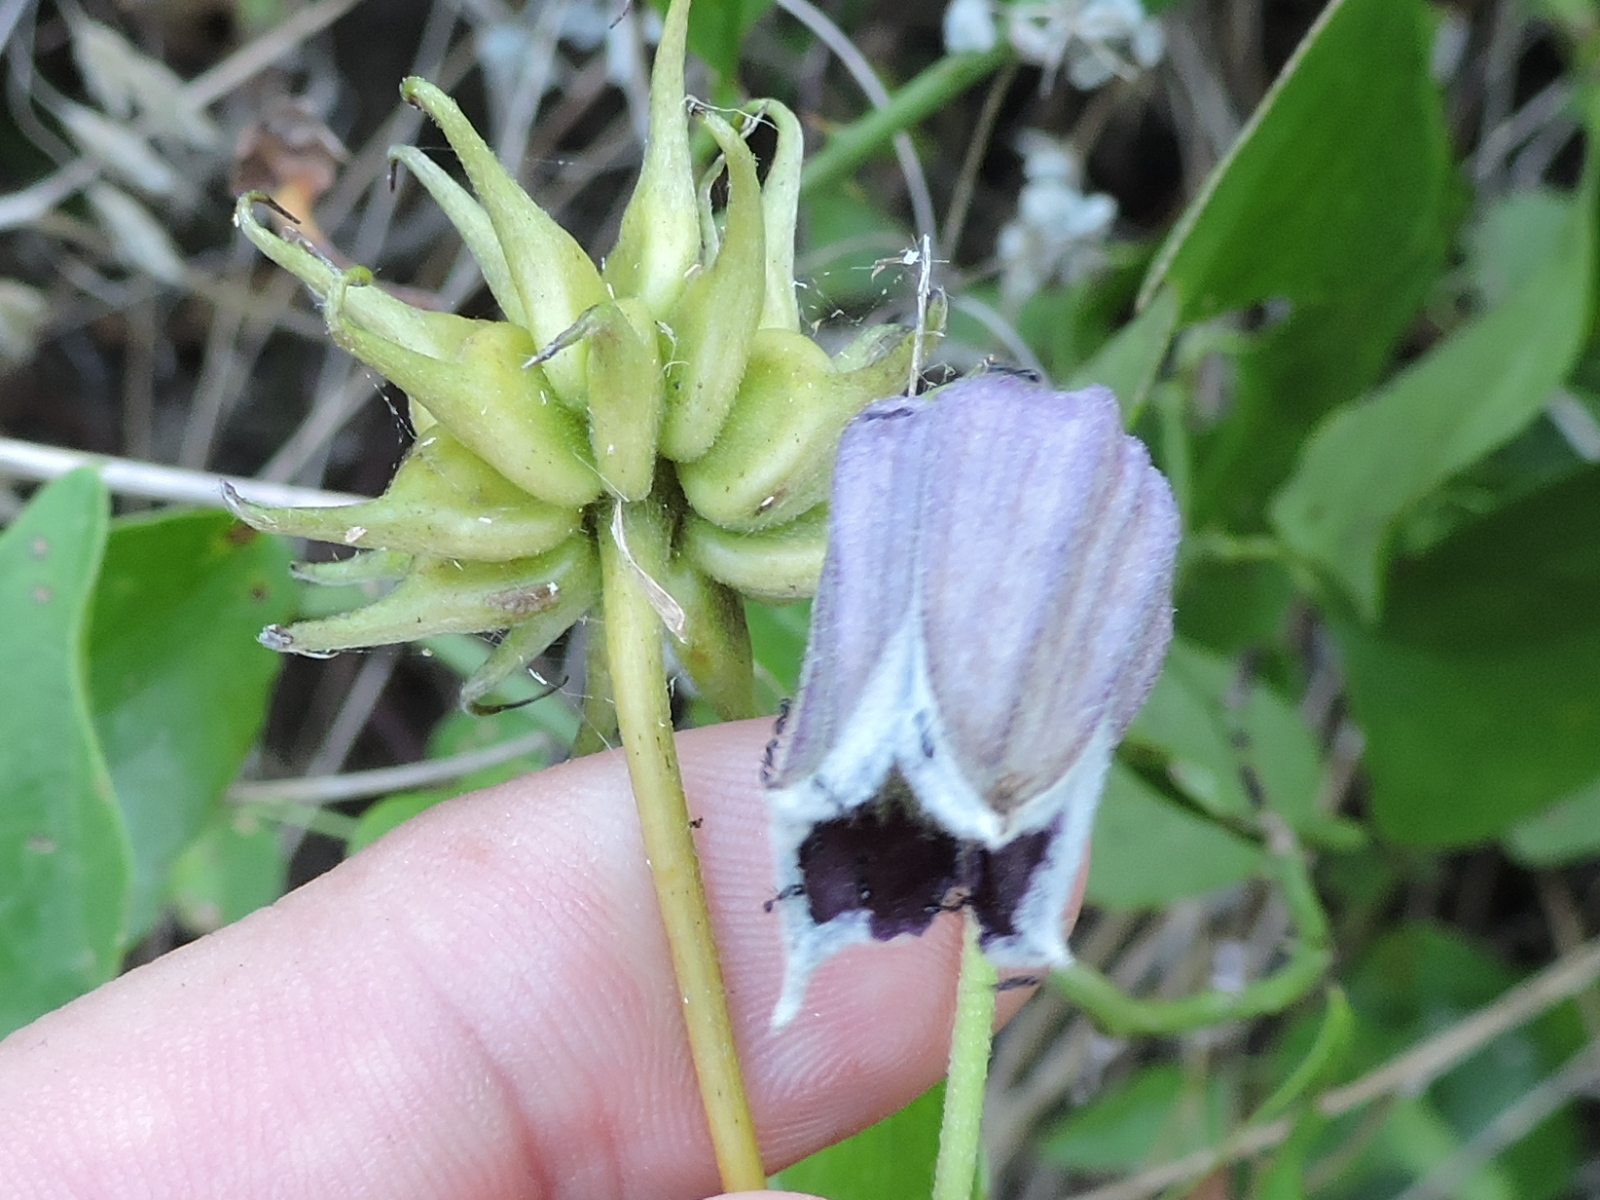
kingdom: Plantae
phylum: Tracheophyta
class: Magnoliopsida
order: Ranunculales
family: Ranunculaceae
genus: Clematis
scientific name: Clematis pitcheri
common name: Bellflower clematis
